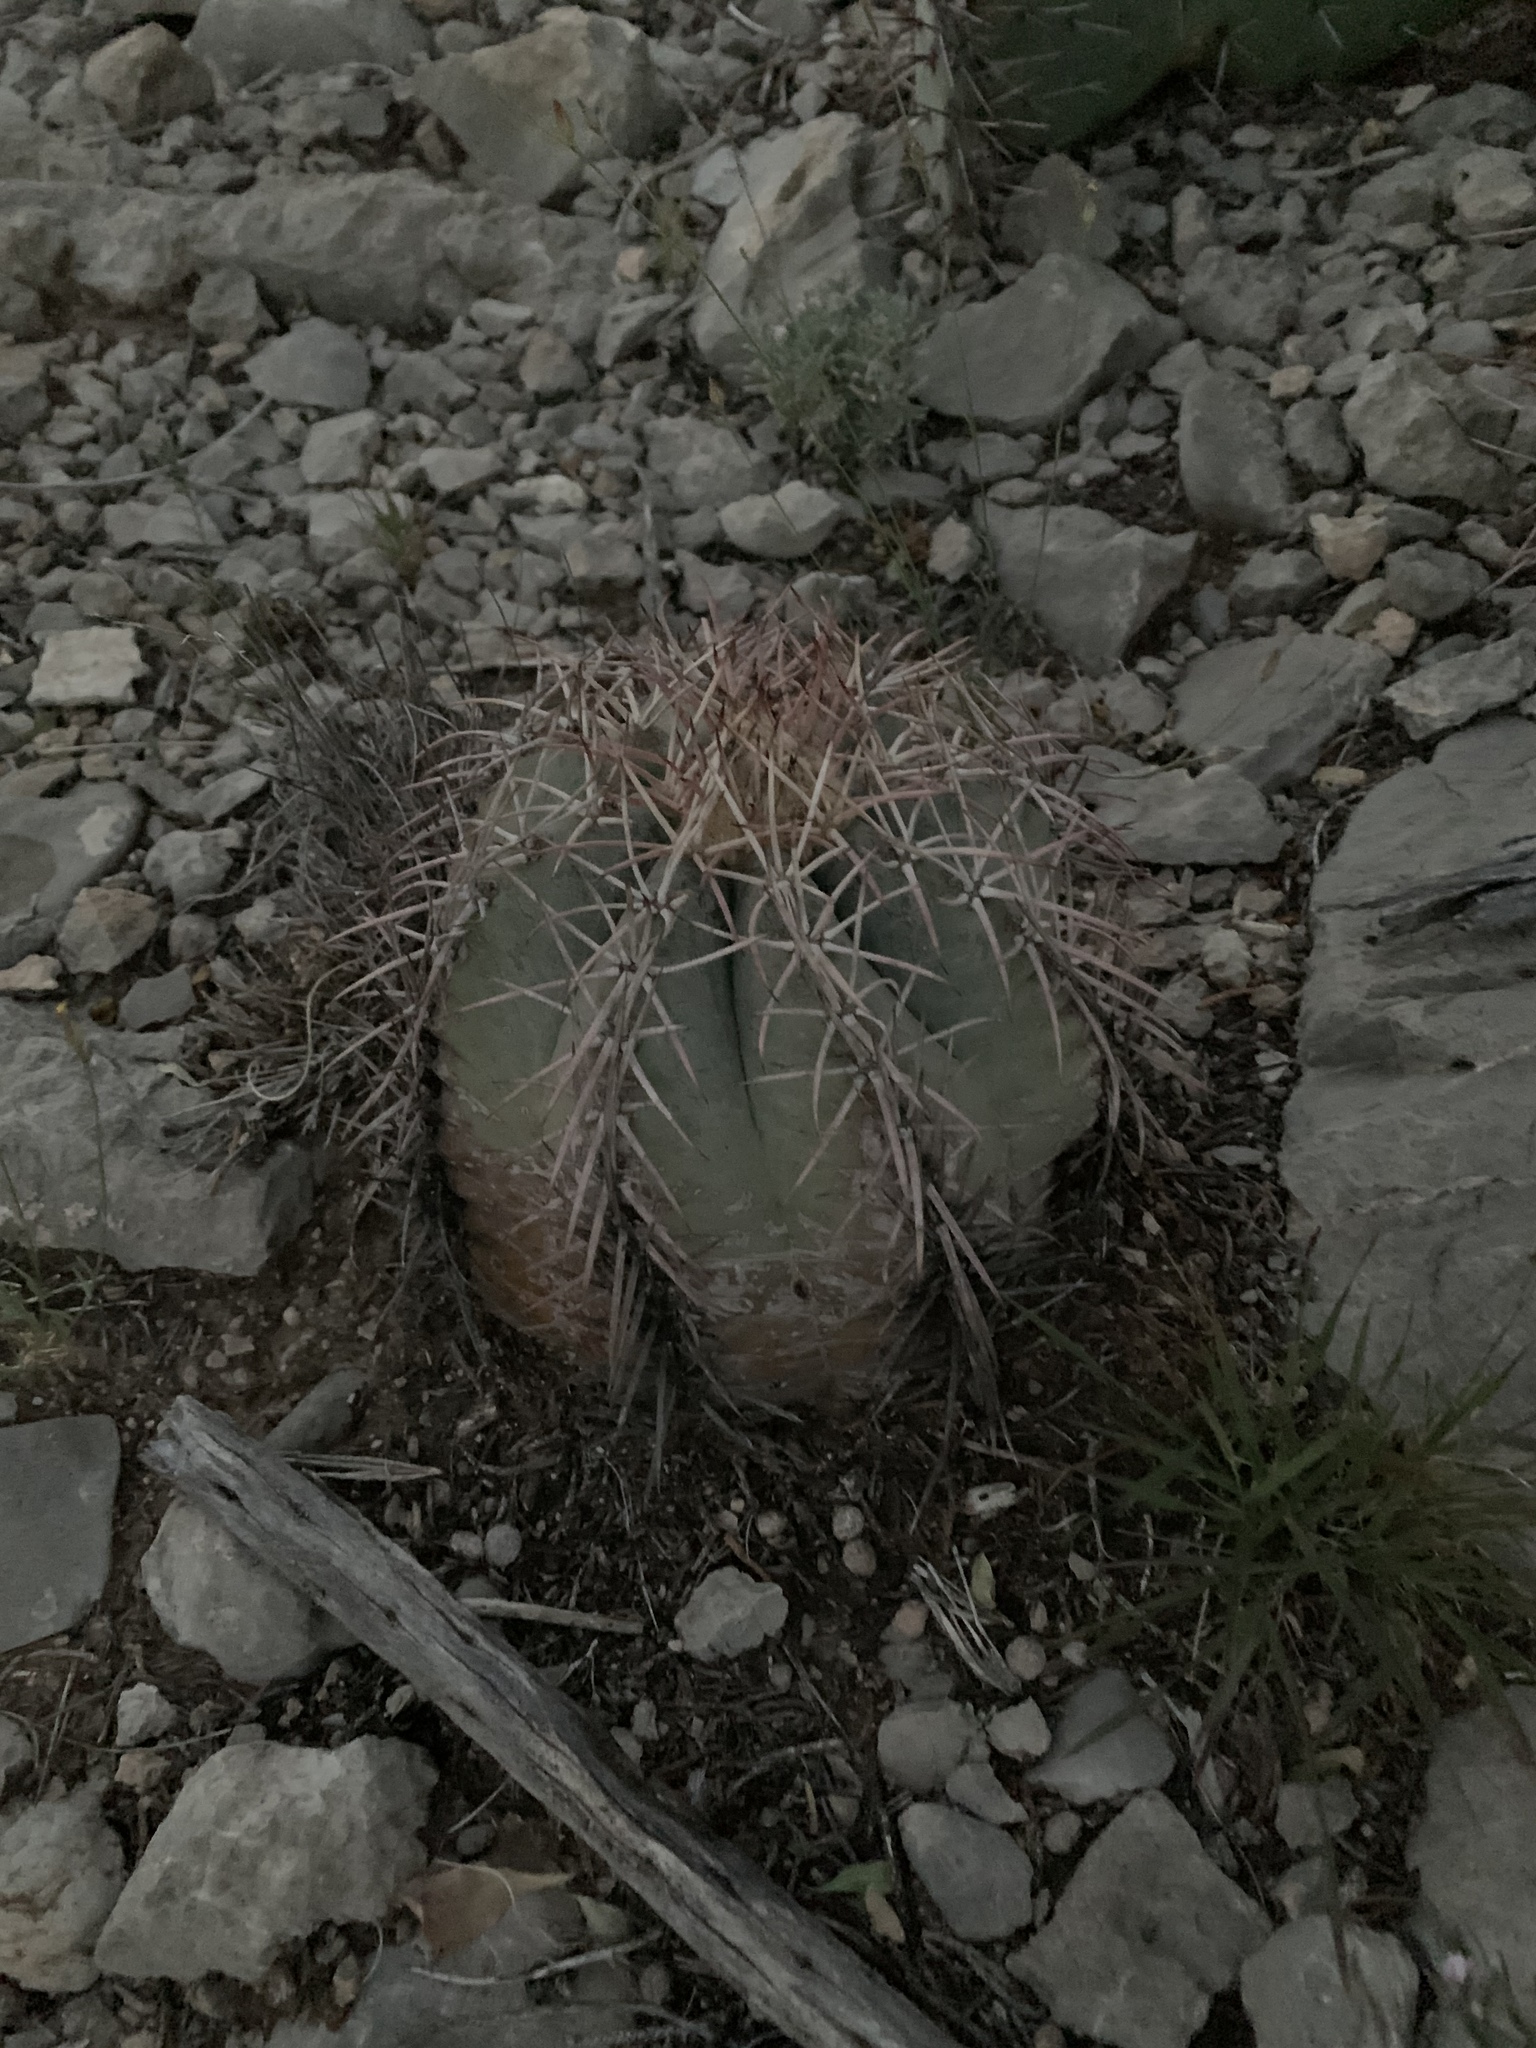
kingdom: Plantae
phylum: Tracheophyta
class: Magnoliopsida
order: Caryophyllales
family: Cactaceae
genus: Echinocactus
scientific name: Echinocactus horizonthalonius
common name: Devilshead
